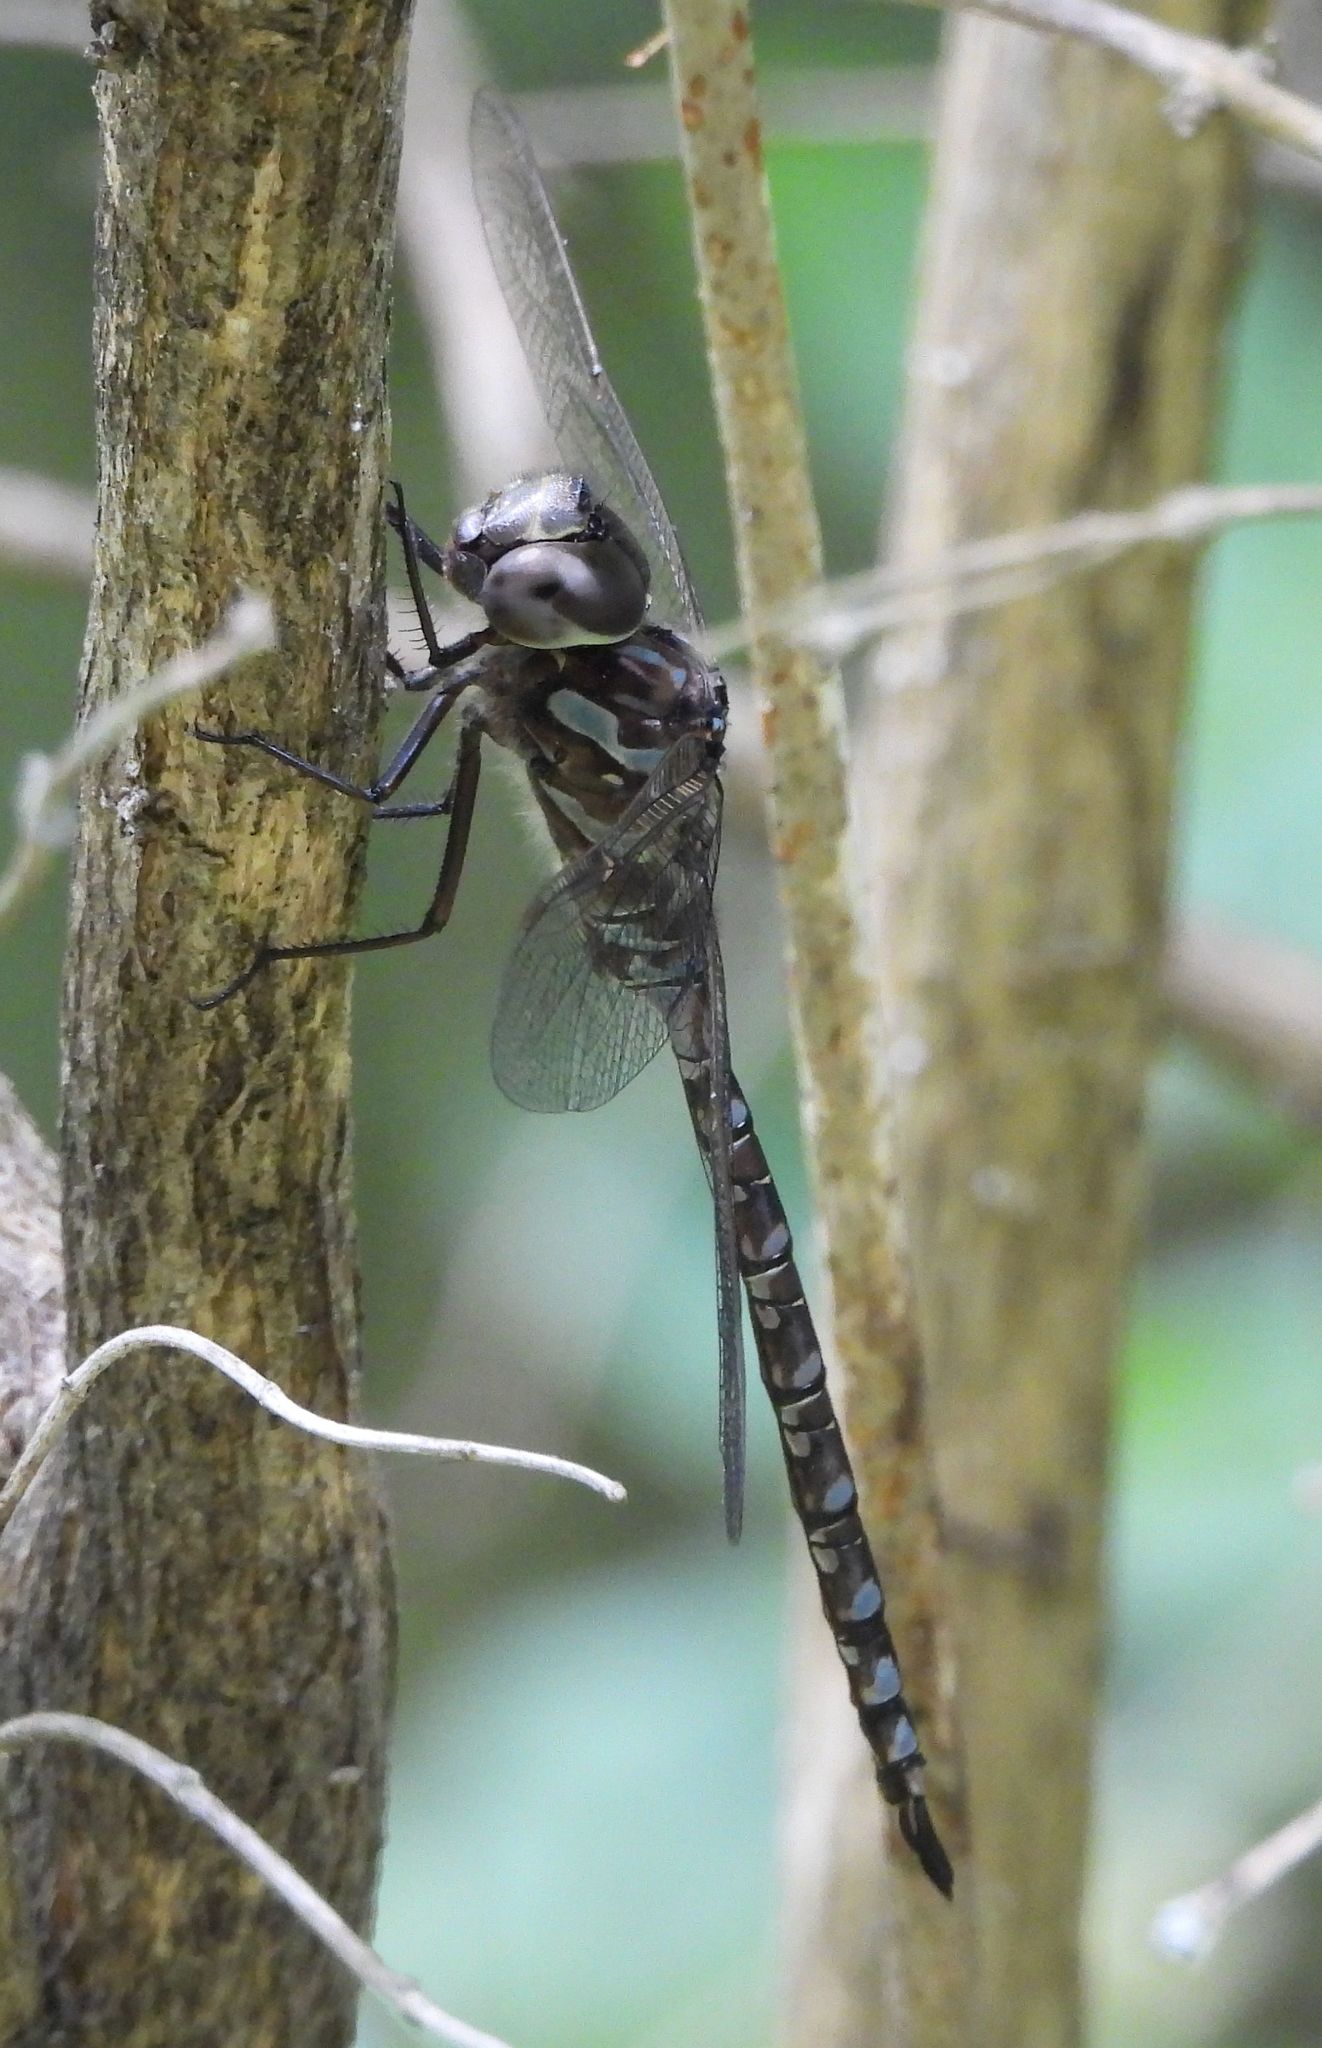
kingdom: Animalia
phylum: Arthropoda
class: Insecta
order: Odonata
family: Aeshnidae
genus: Aeshna
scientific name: Aeshna canadensis
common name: Canada darner
